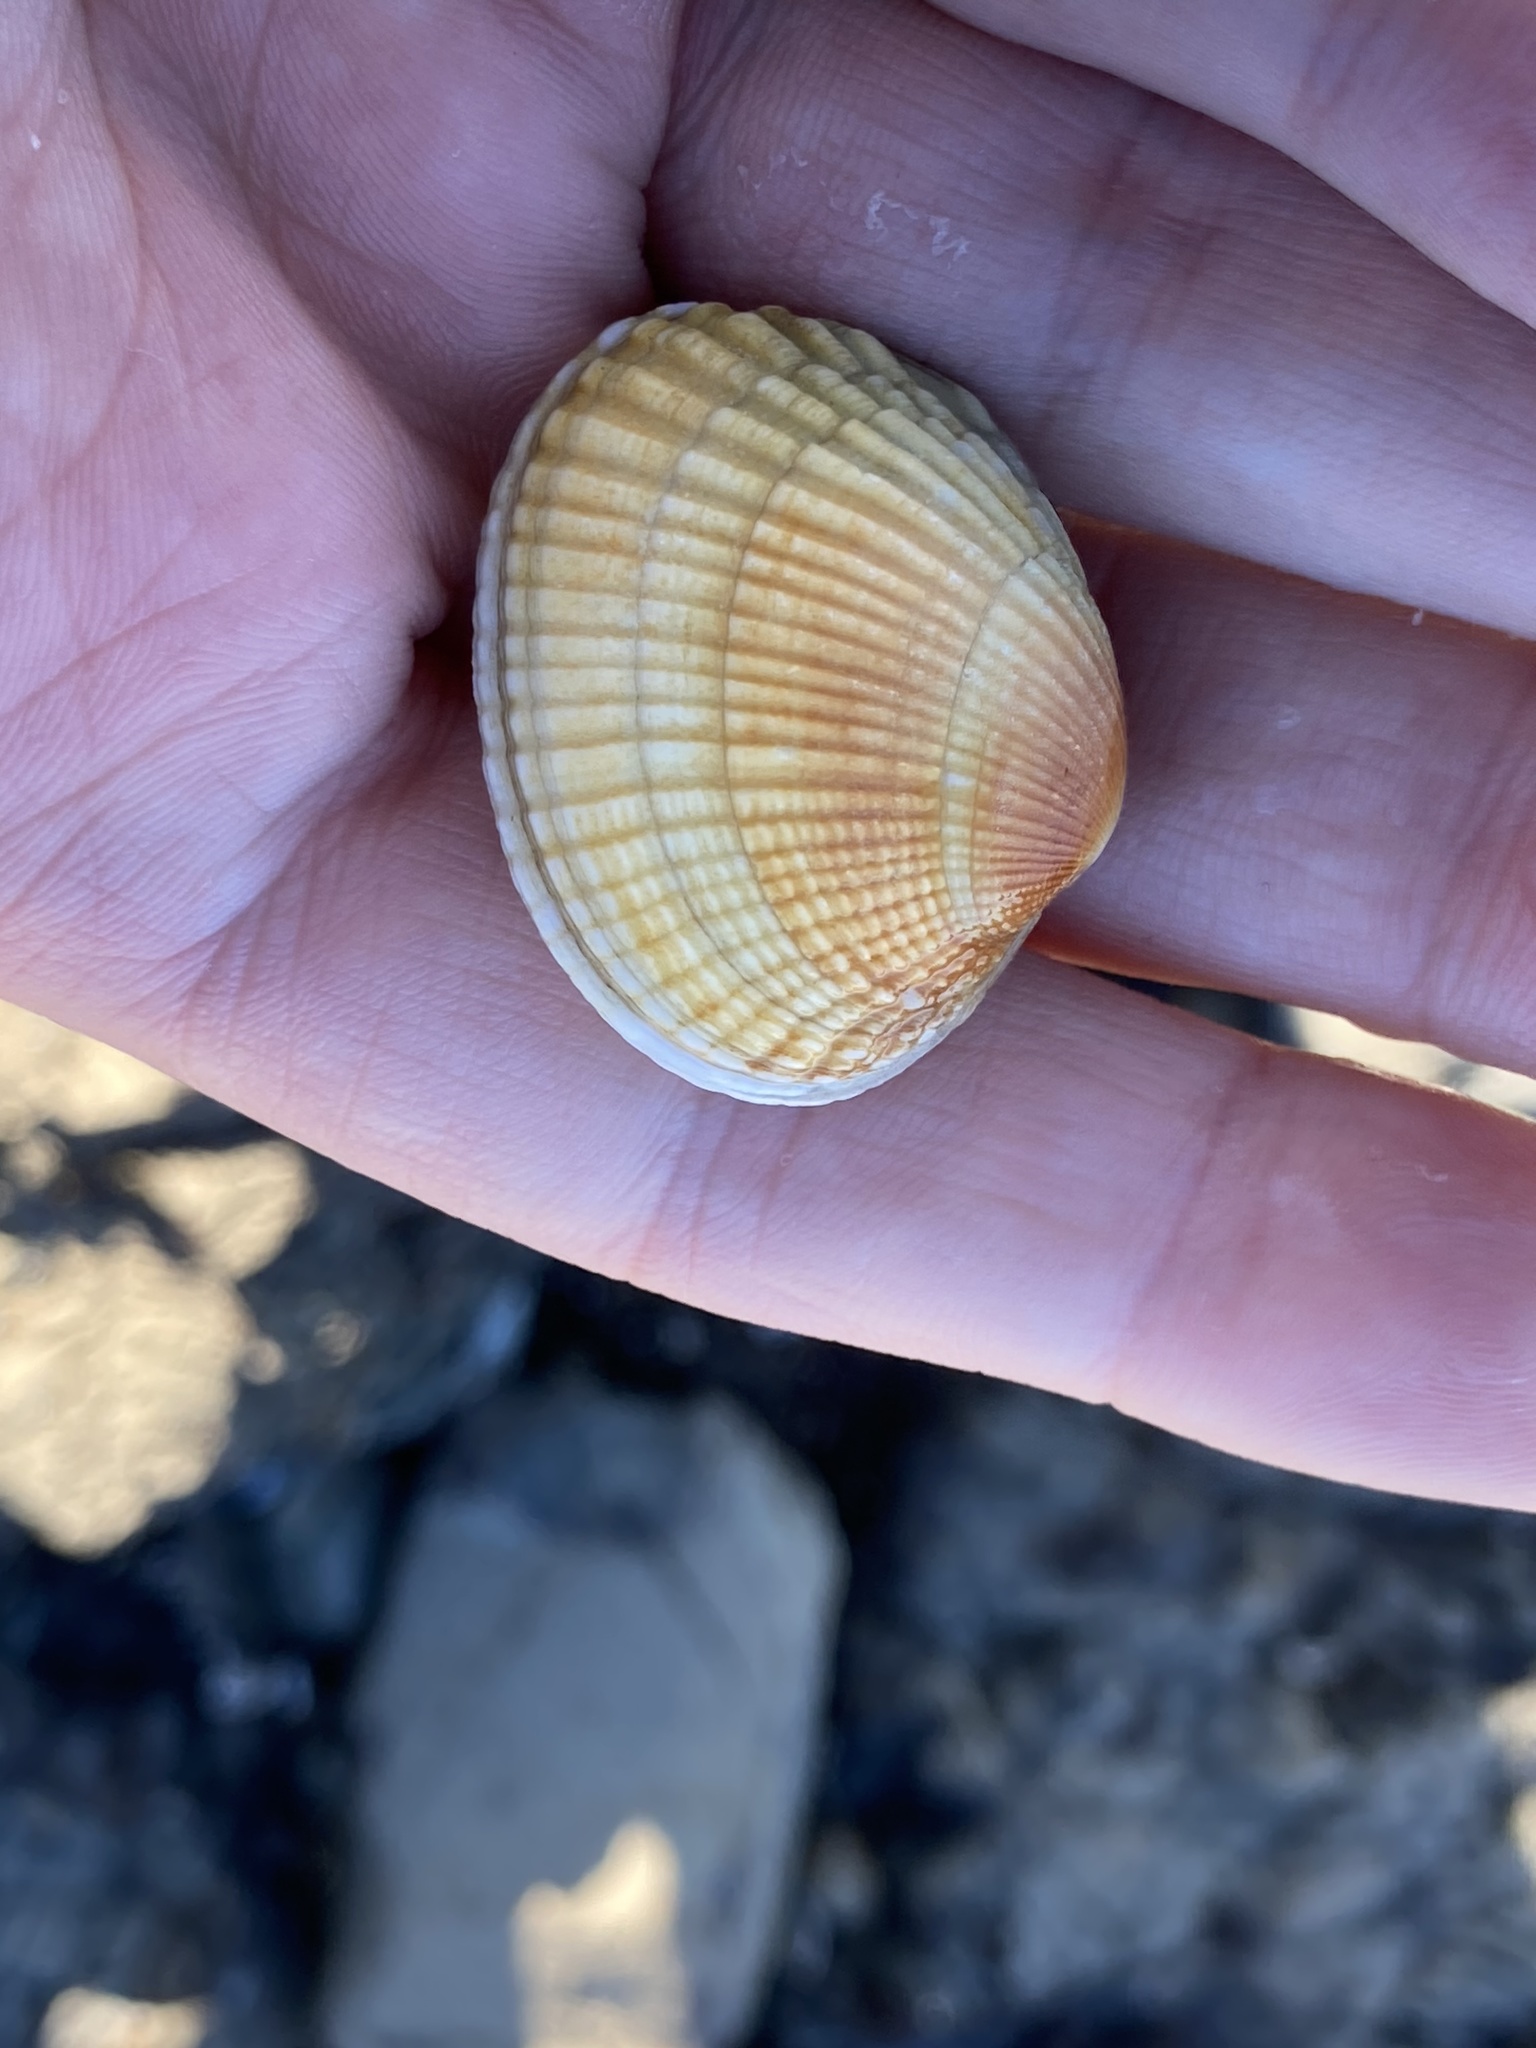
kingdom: Animalia
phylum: Mollusca
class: Bivalvia
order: Venerida
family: Veneridae
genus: Leukoma
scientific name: Leukoma crassicosta
